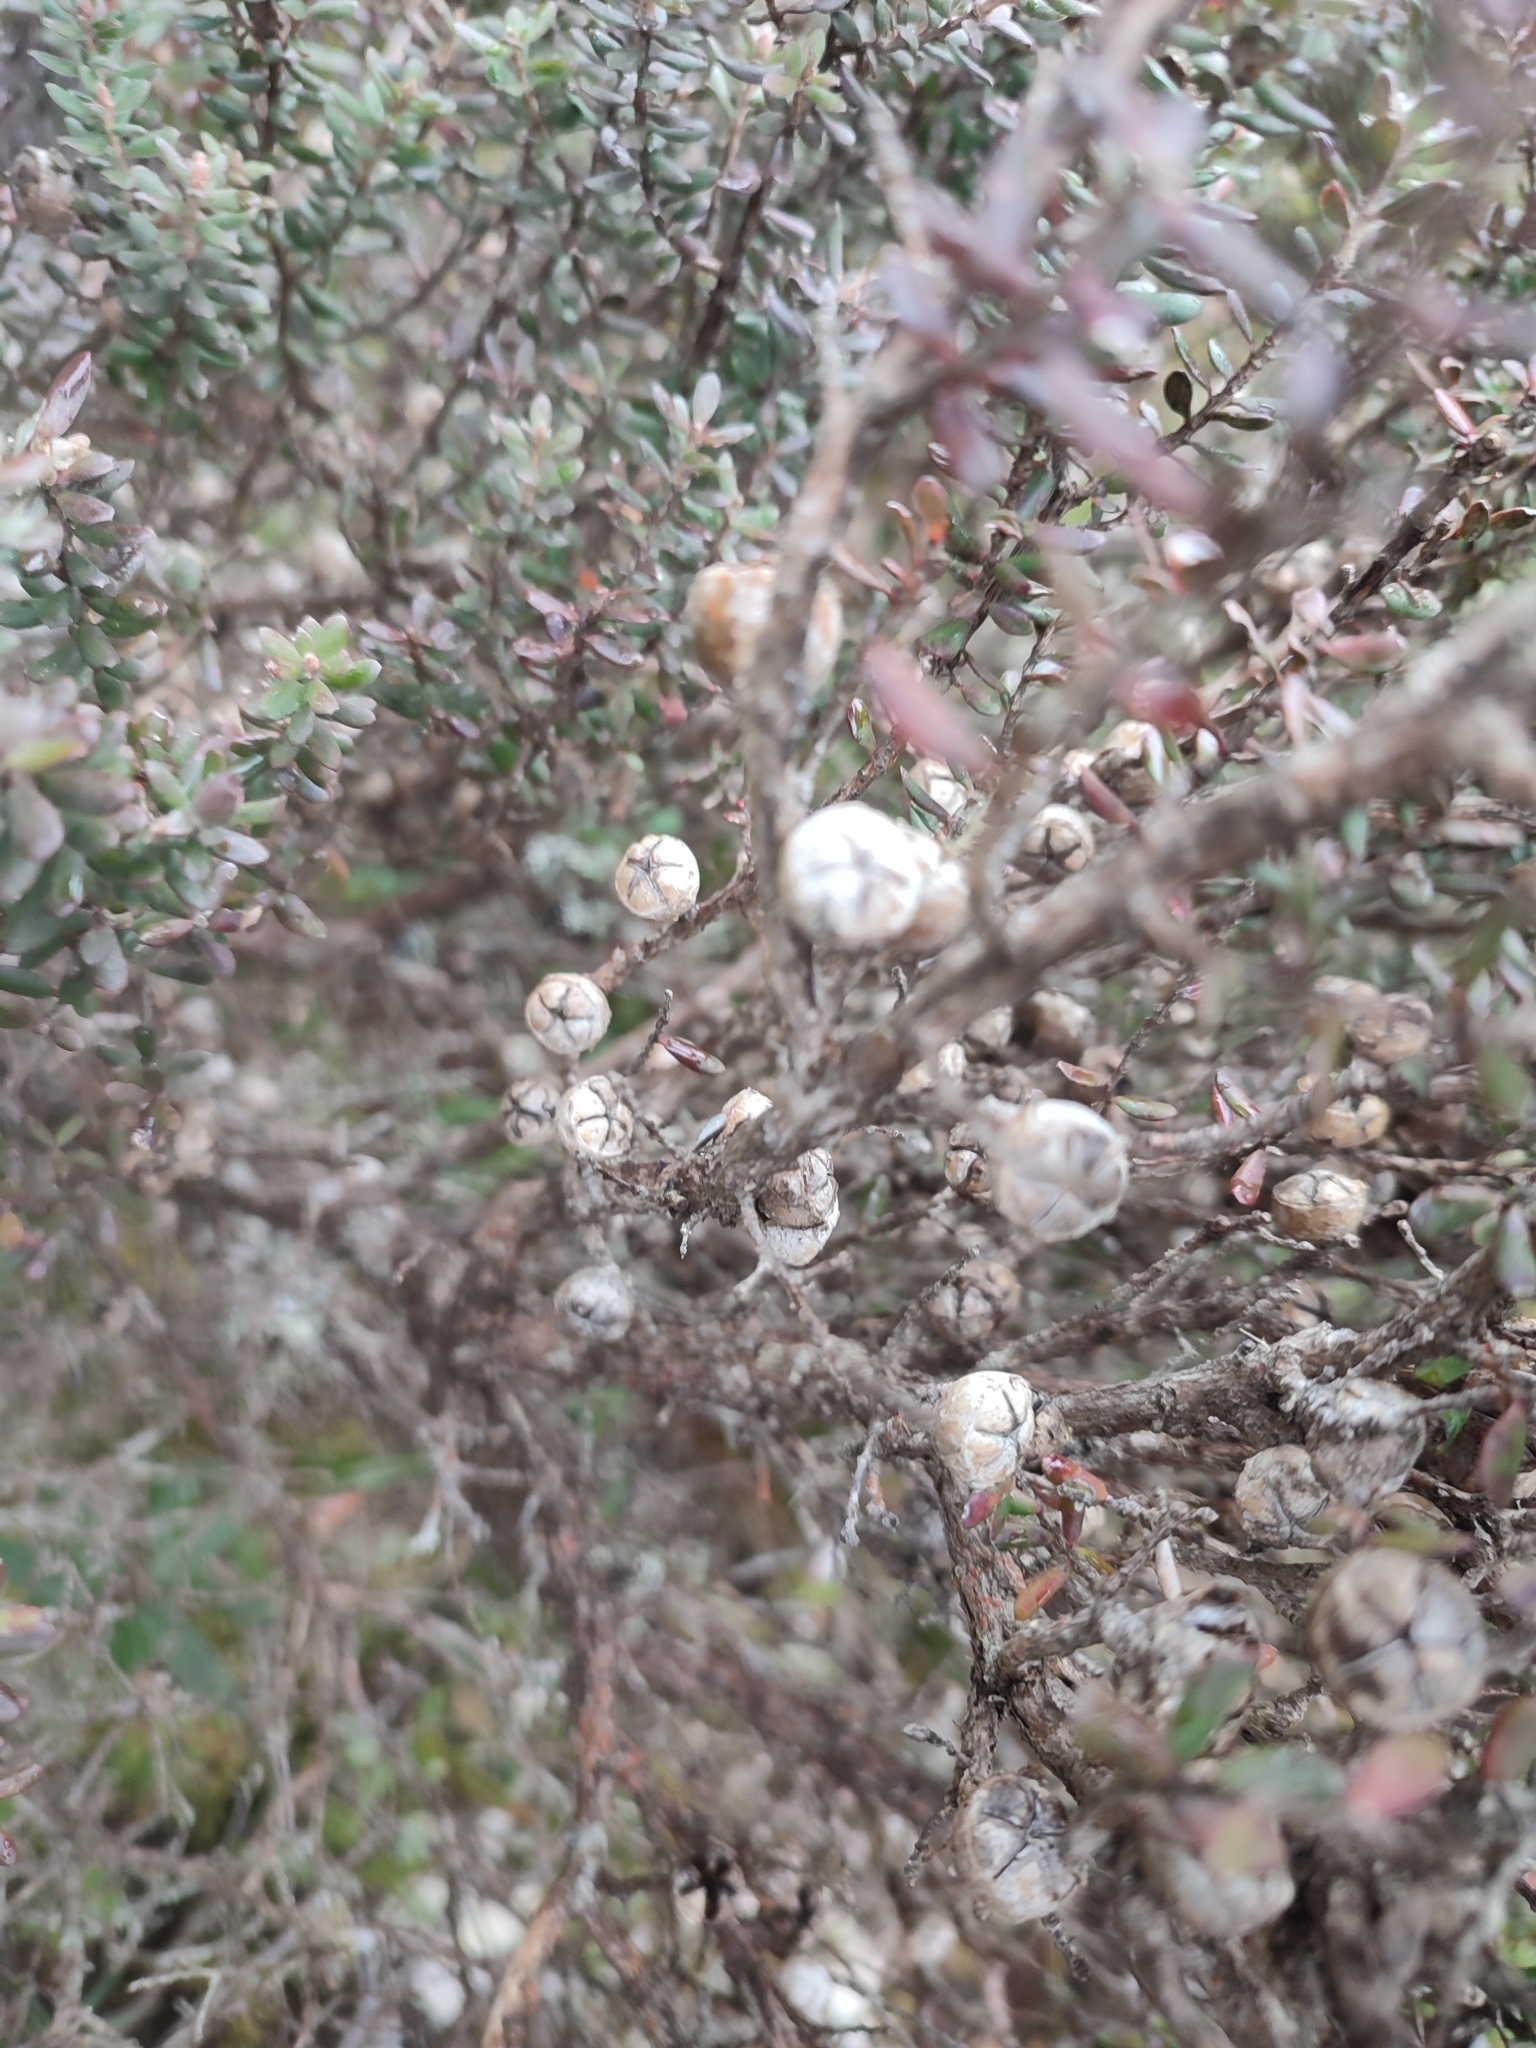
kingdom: Plantae
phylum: Tracheophyta
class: Magnoliopsida
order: Myrtales
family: Myrtaceae
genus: Leptospermum
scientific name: Leptospermum lanigerum
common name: Woolly tea-tree
